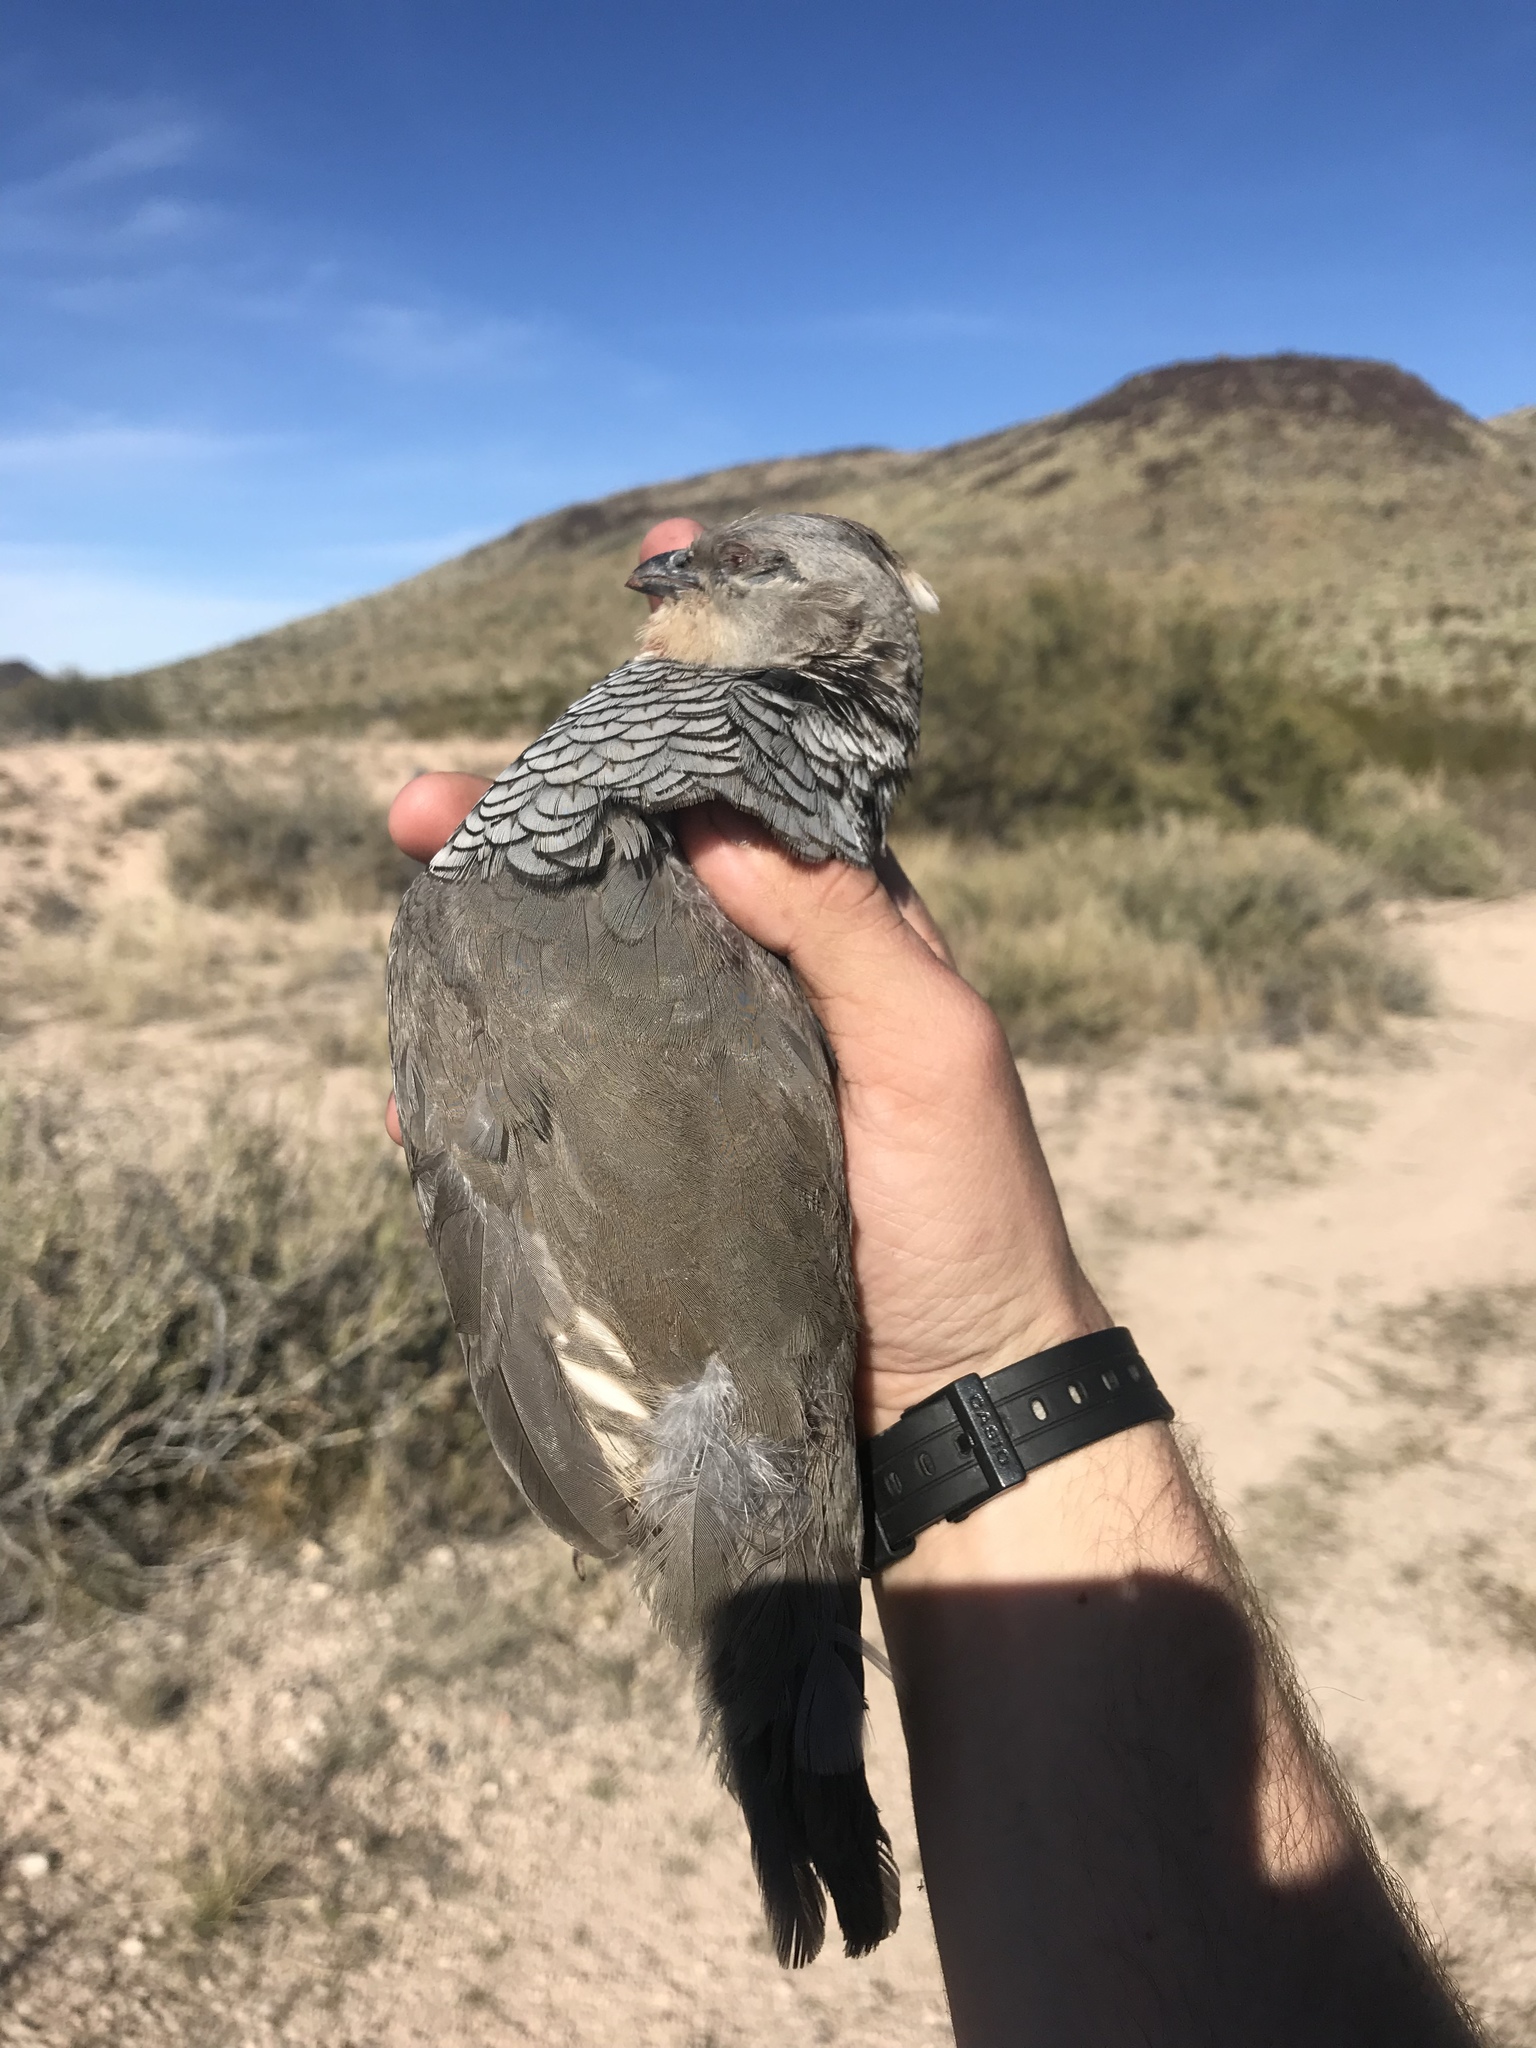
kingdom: Animalia
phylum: Chordata
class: Aves
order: Galliformes
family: Odontophoridae
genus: Callipepla
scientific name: Callipepla squamata
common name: Scaled quail
